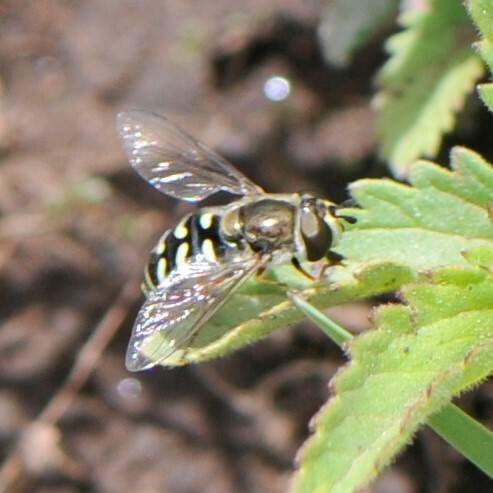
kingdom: Animalia
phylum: Arthropoda
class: Insecta
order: Diptera
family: Syrphidae
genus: Eupeodes
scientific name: Eupeodes volucris
